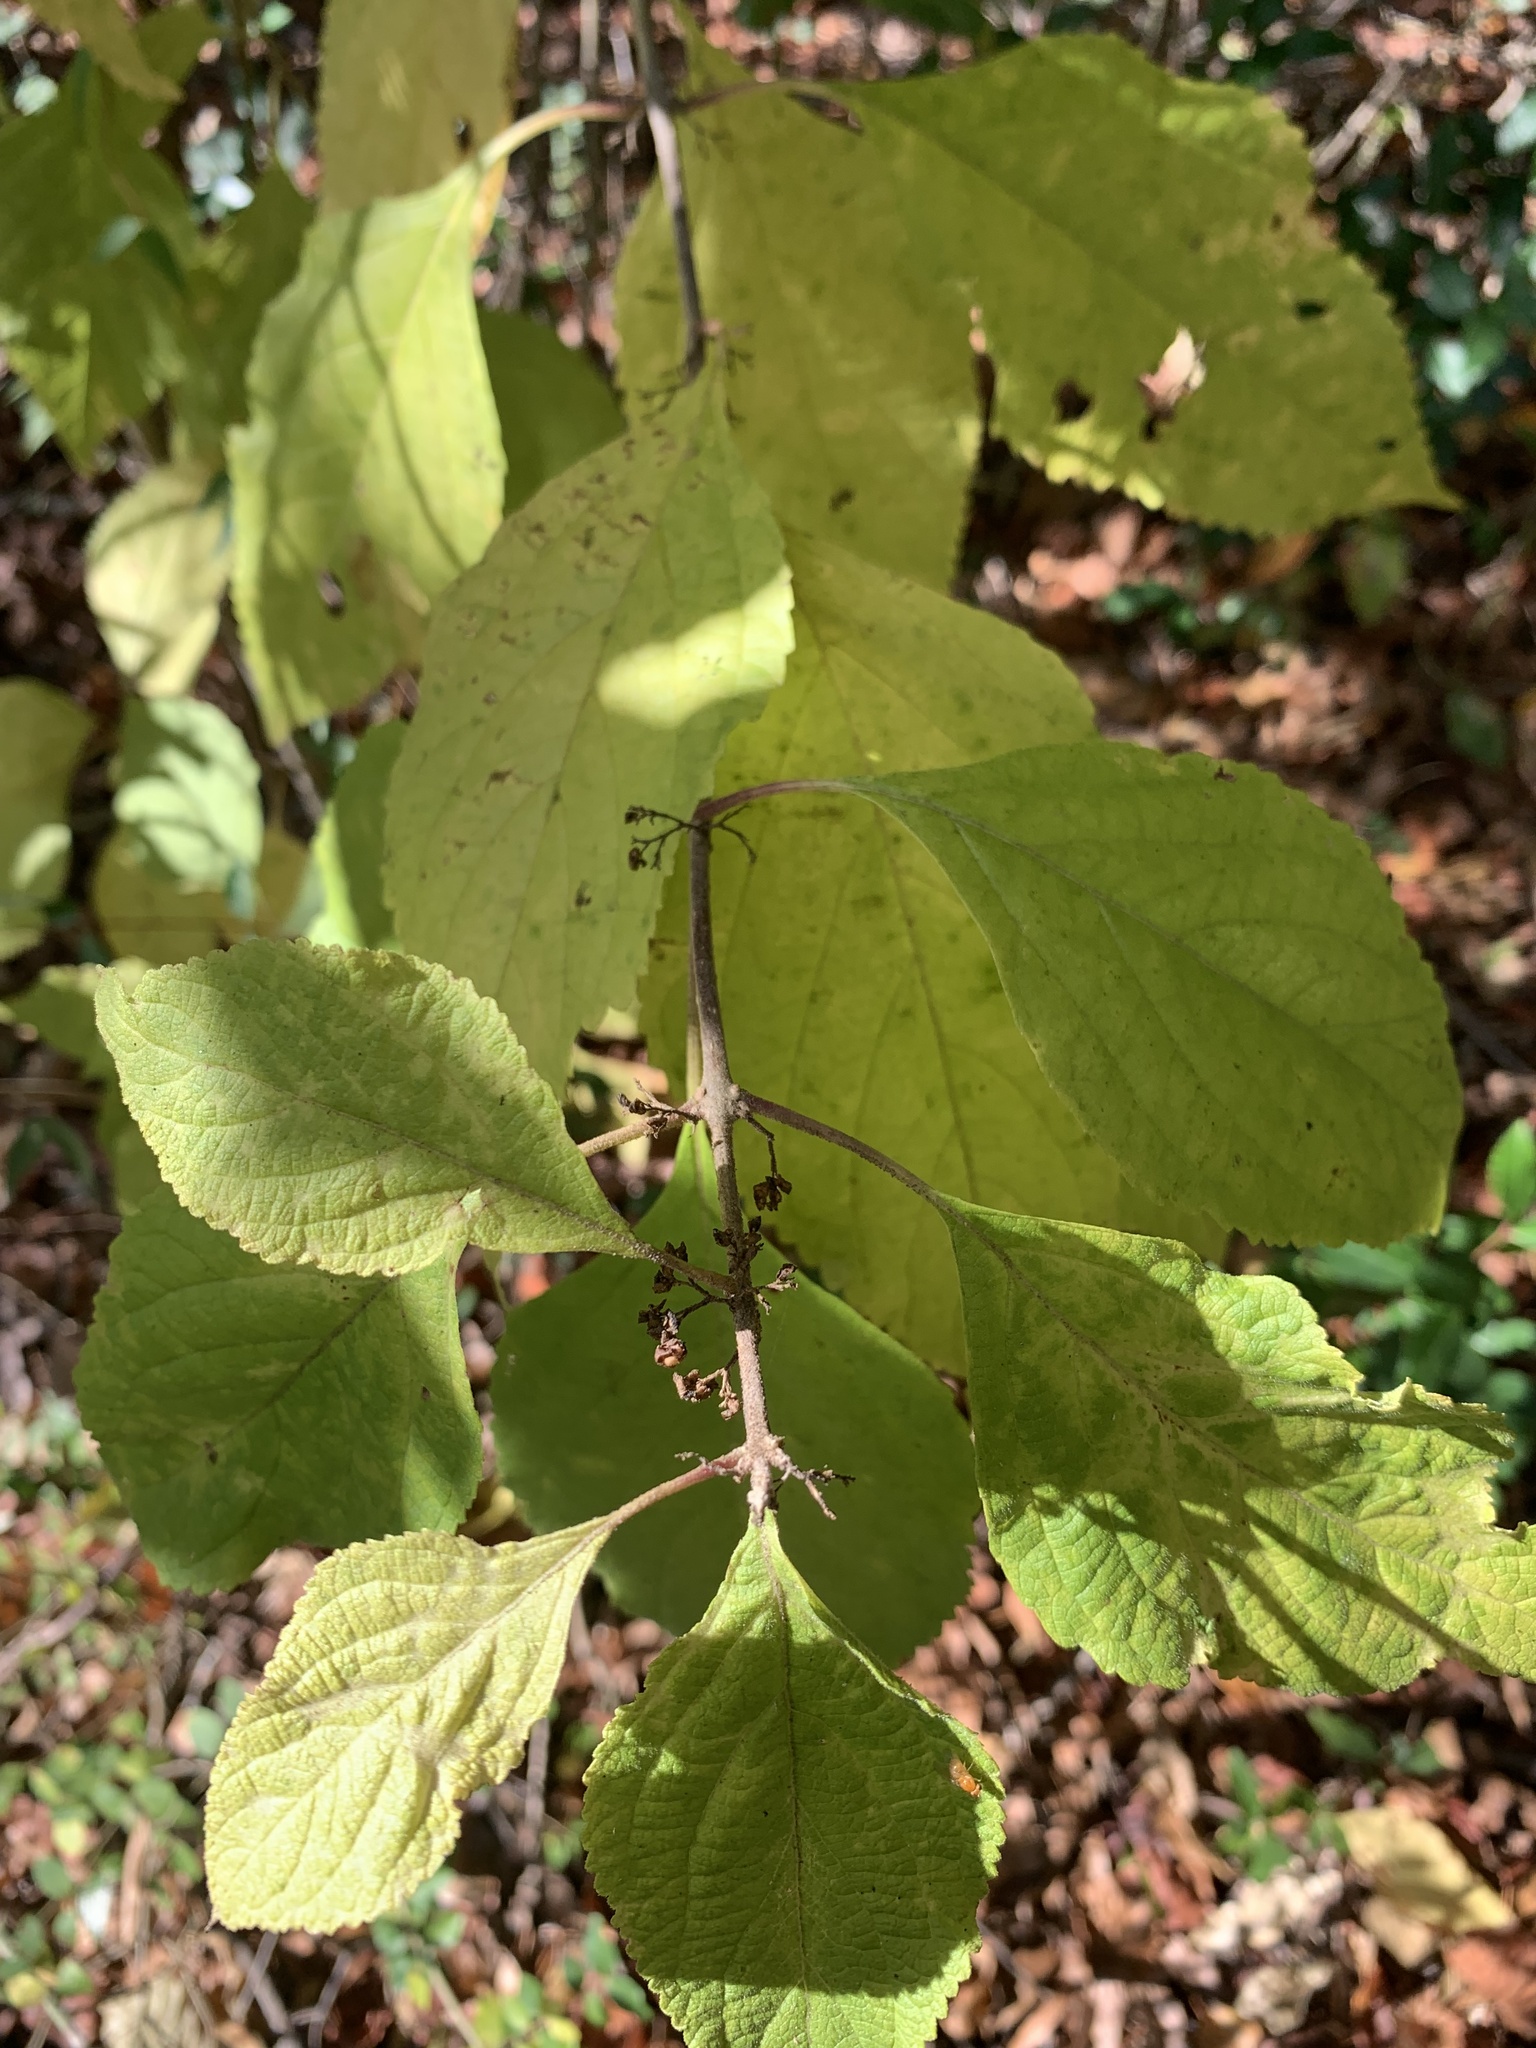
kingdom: Plantae
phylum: Tracheophyta
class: Magnoliopsida
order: Lamiales
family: Lamiaceae
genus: Callicarpa
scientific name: Callicarpa americana
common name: American beautyberry
